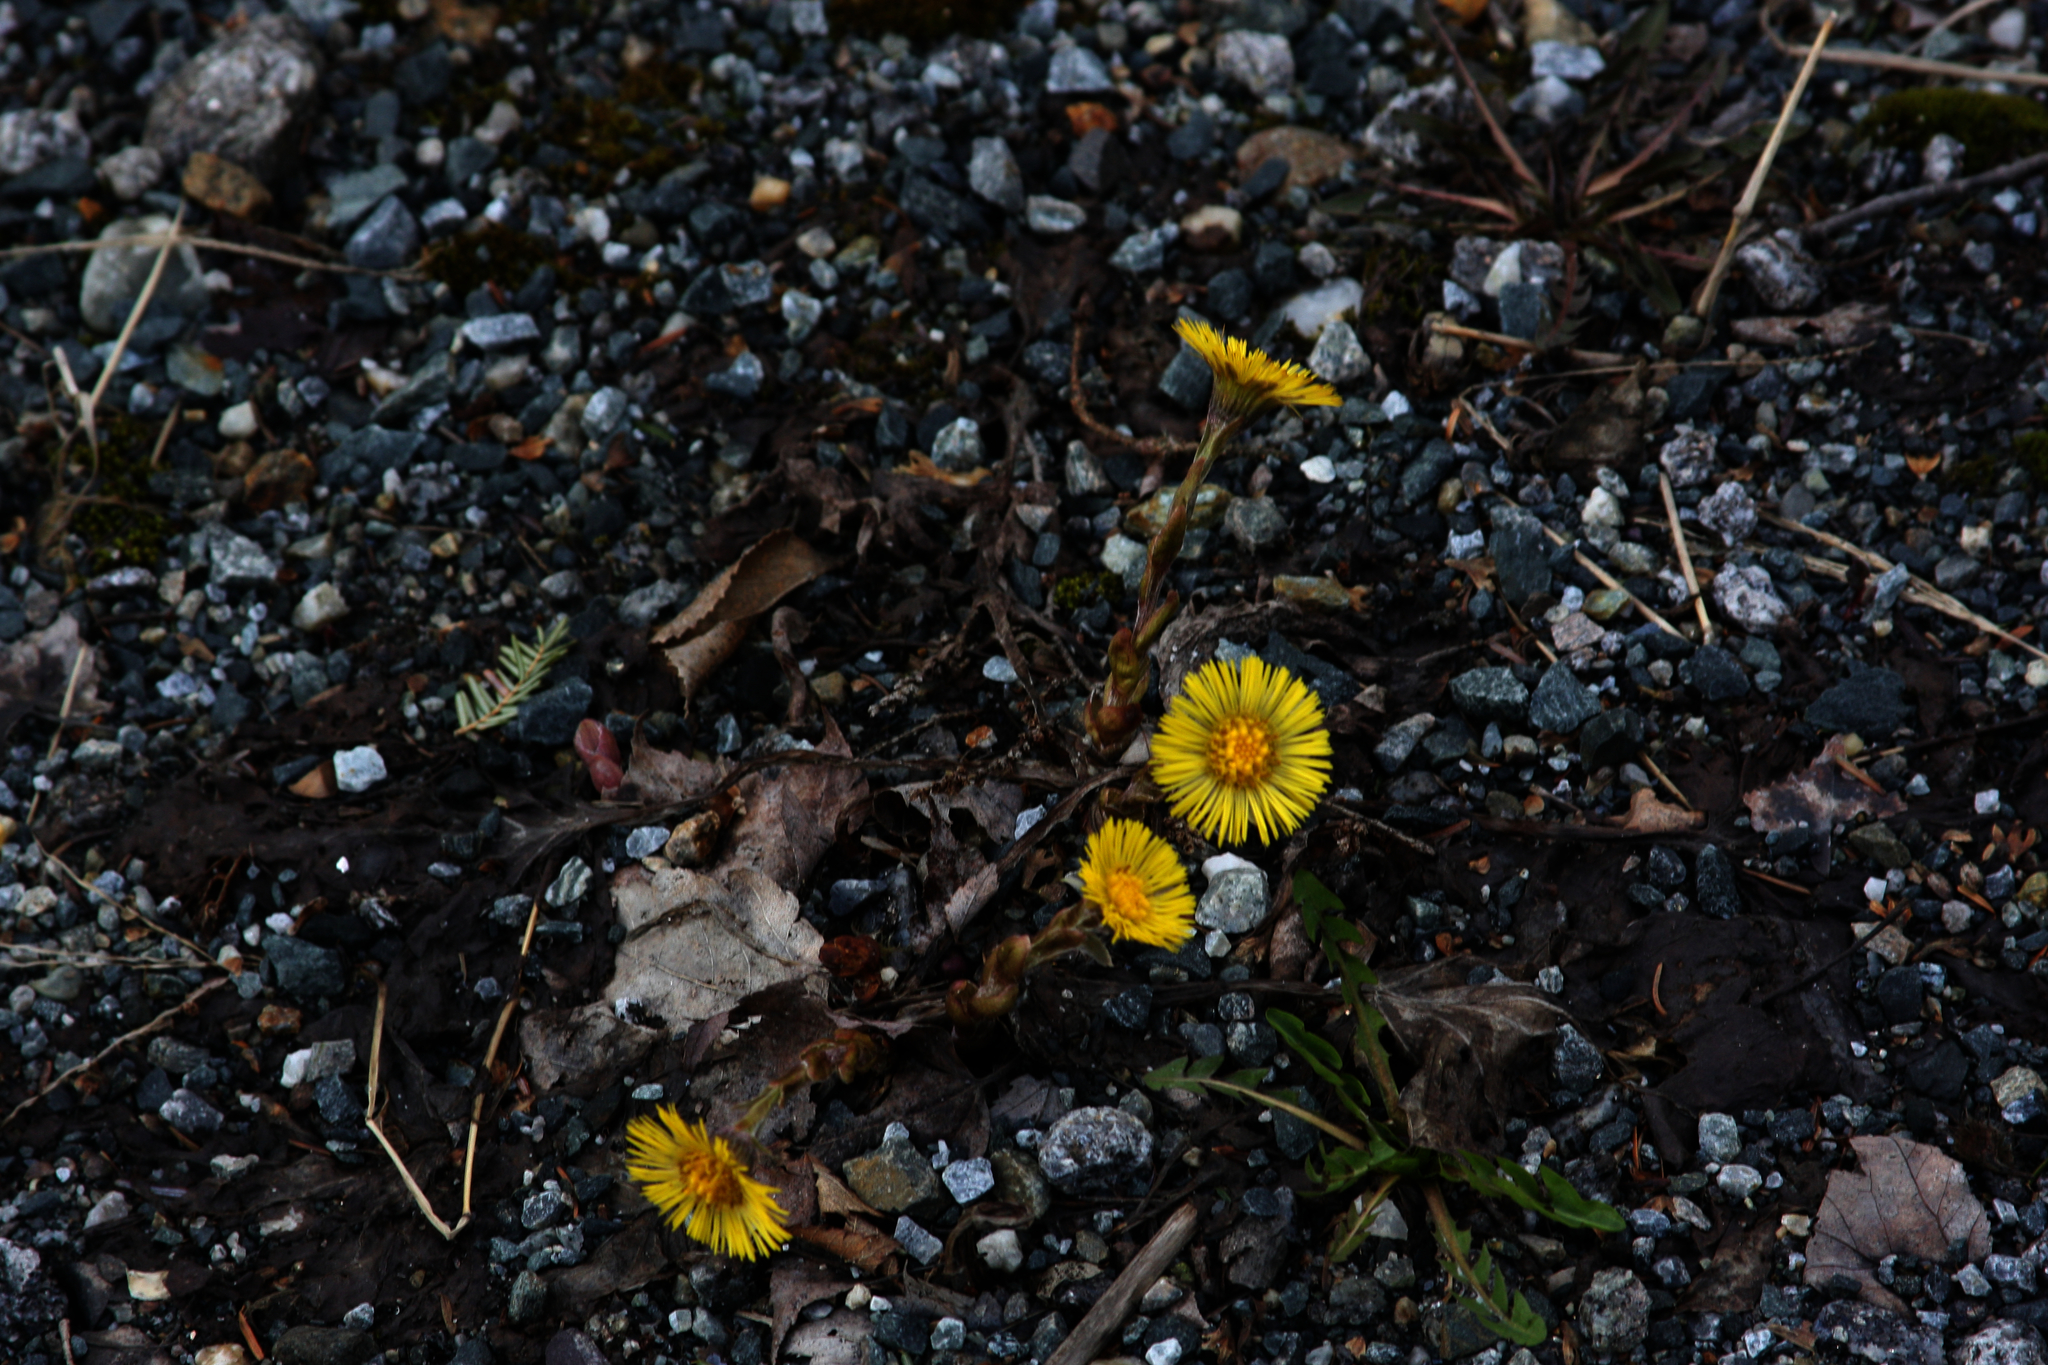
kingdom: Plantae
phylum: Tracheophyta
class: Magnoliopsida
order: Asterales
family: Asteraceae
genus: Tussilago
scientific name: Tussilago farfara
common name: Coltsfoot
